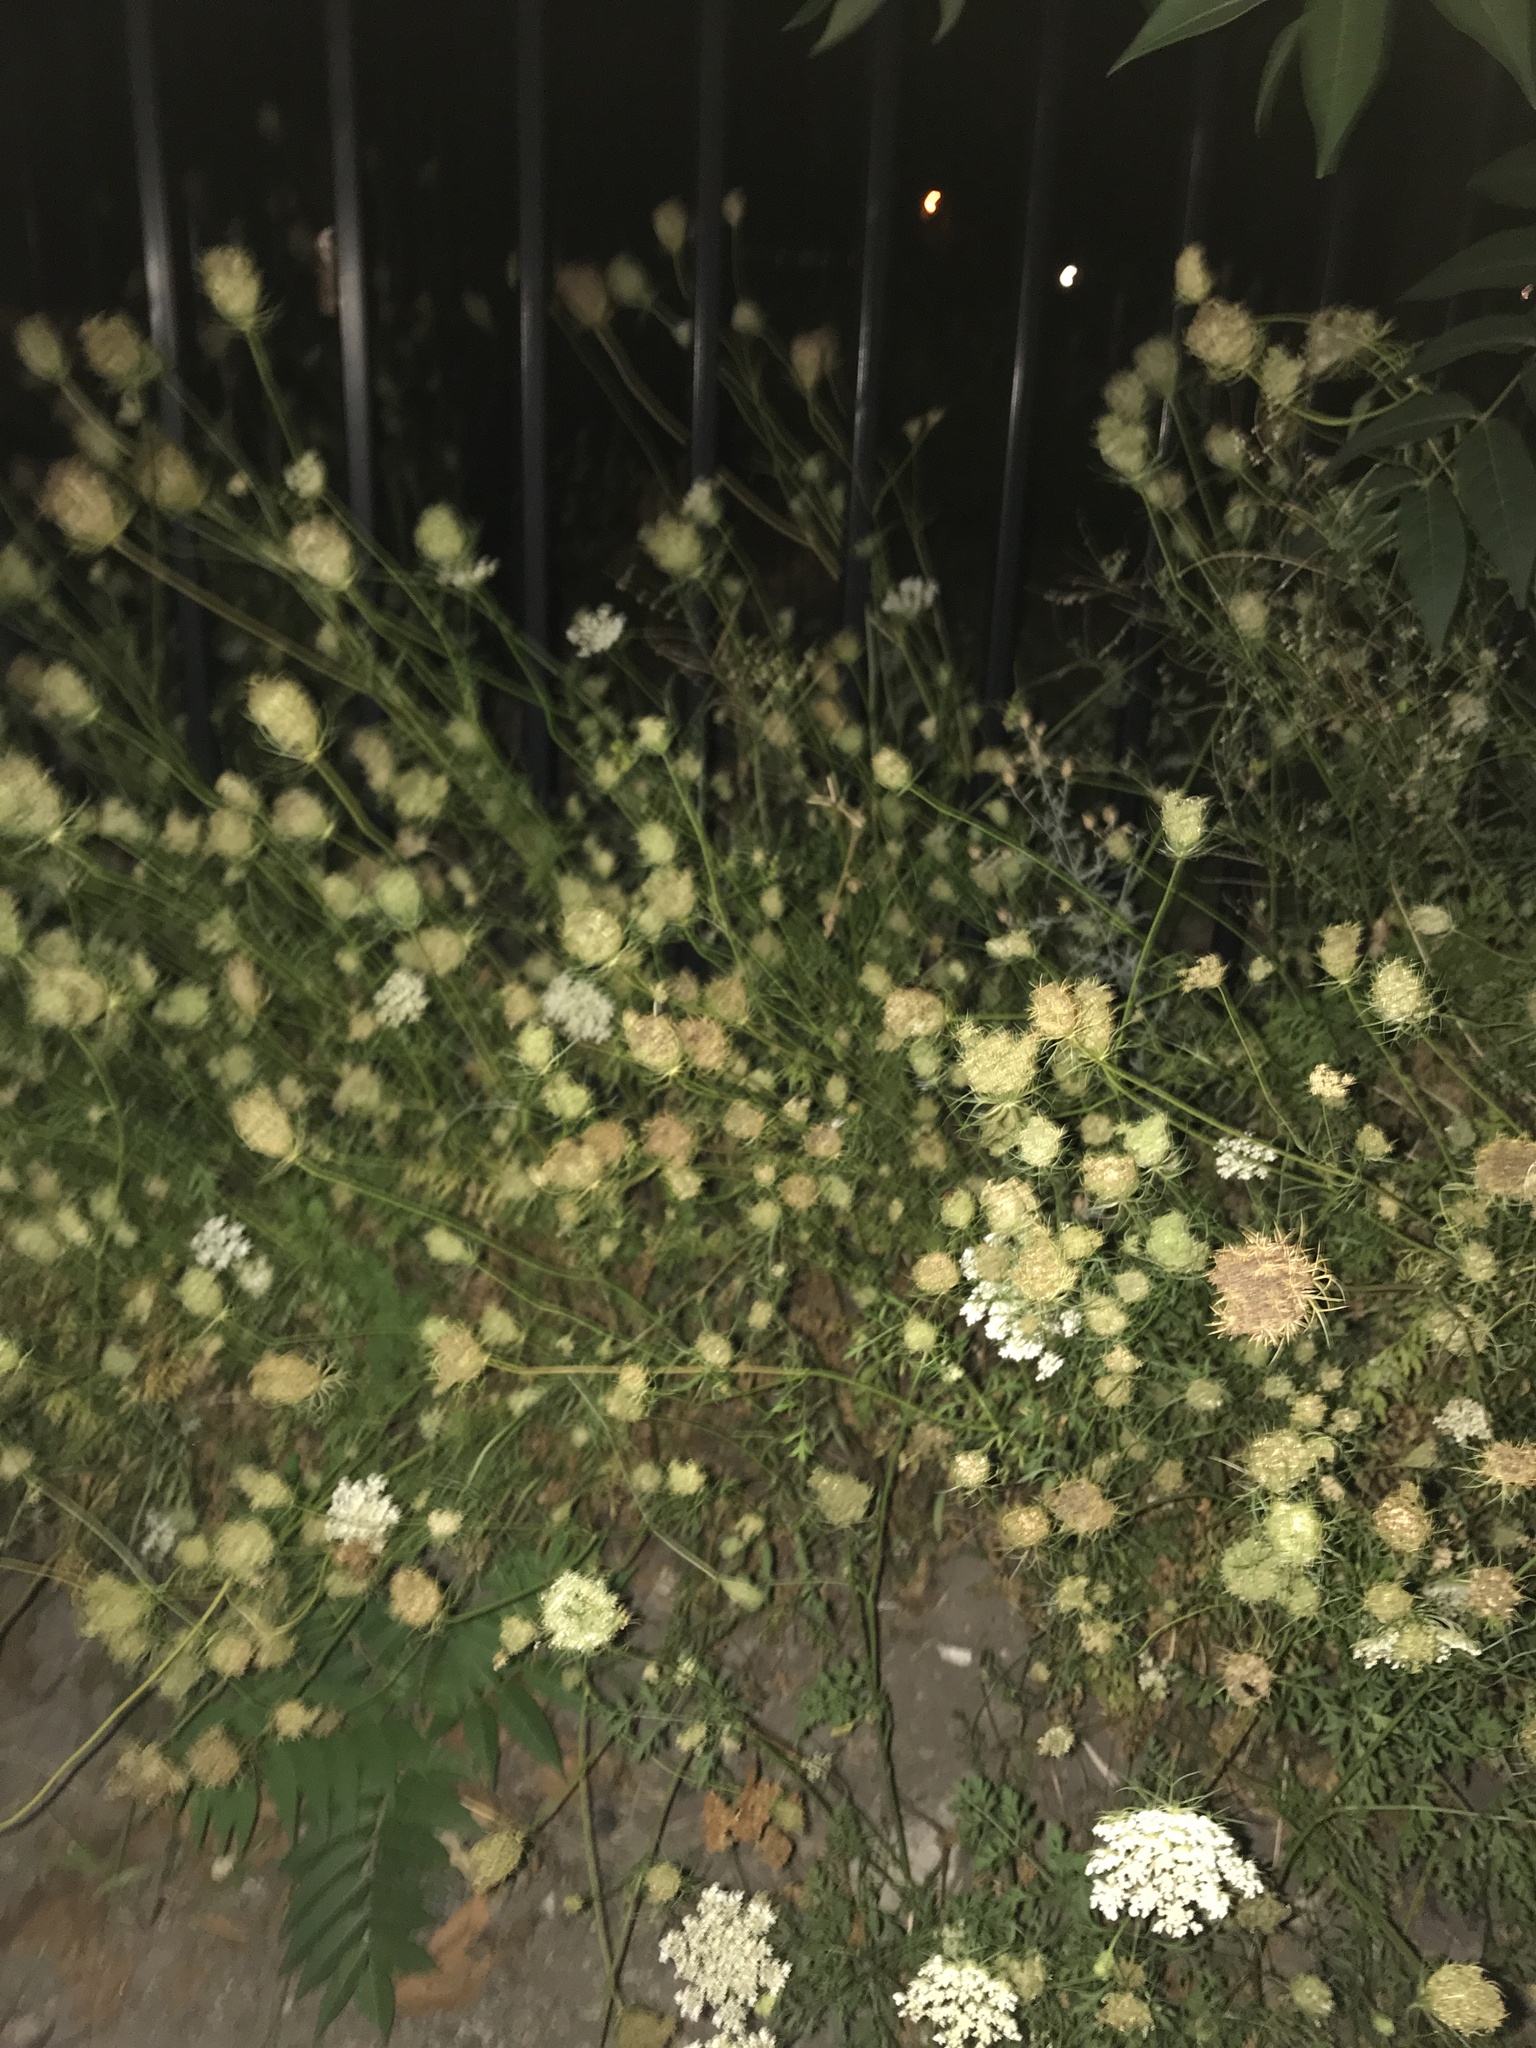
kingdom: Plantae
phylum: Tracheophyta
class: Magnoliopsida
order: Apiales
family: Apiaceae
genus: Daucus
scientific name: Daucus carota
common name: Wild carrot
